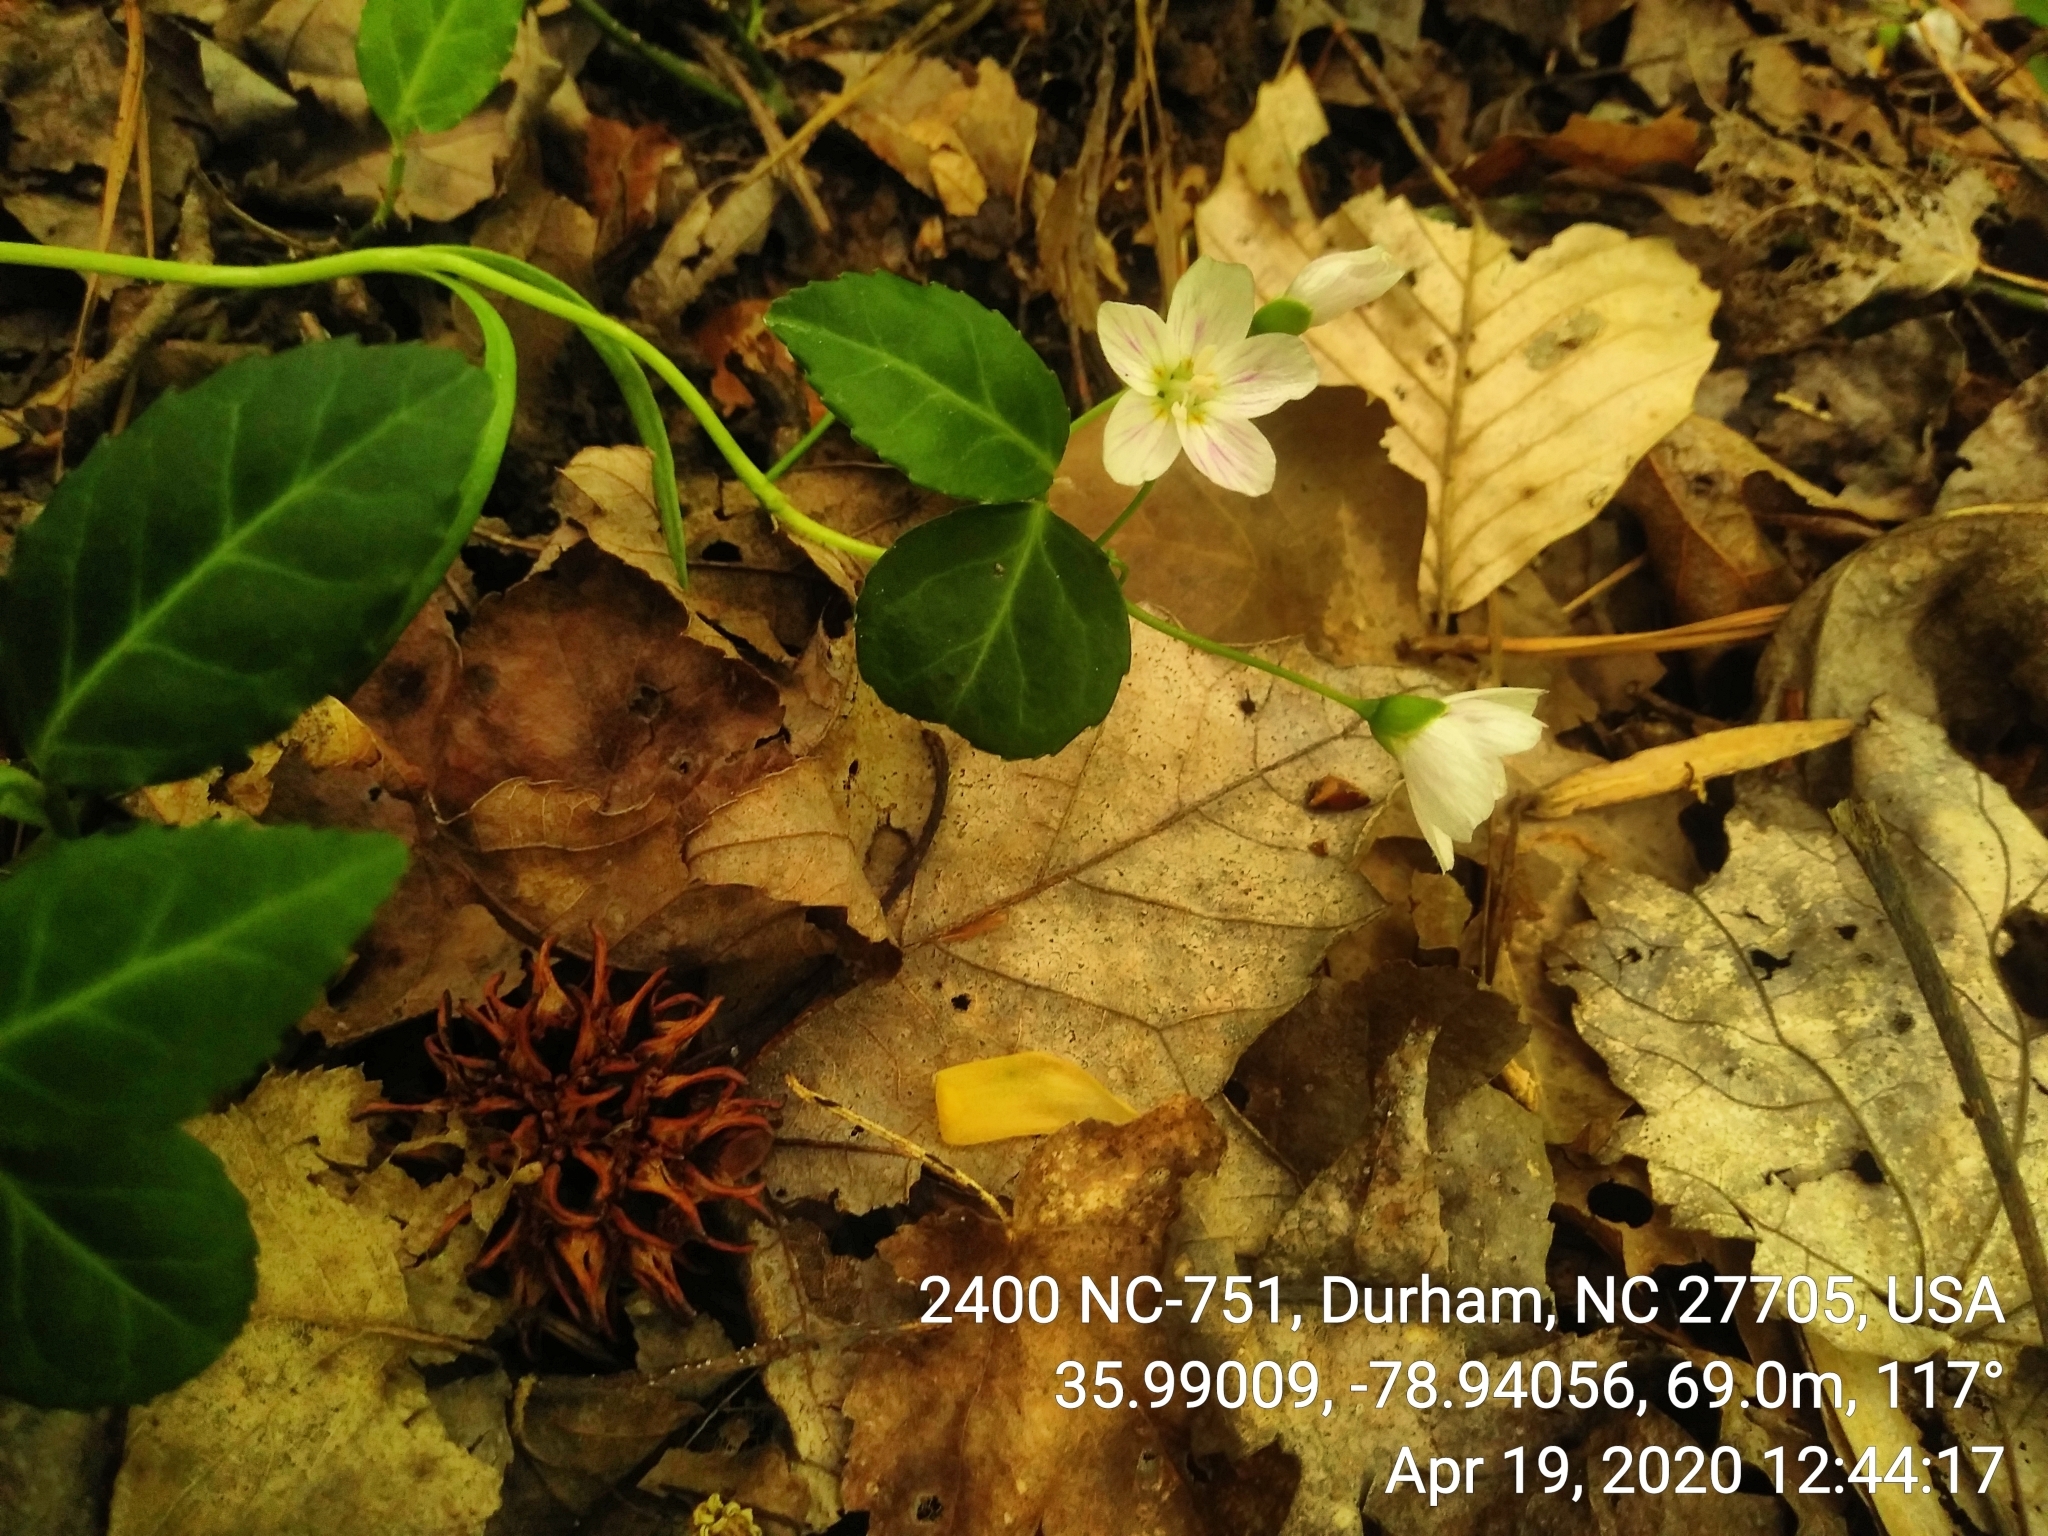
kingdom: Plantae
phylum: Tracheophyta
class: Magnoliopsida
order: Caryophyllales
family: Montiaceae
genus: Claytonia
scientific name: Claytonia virginica
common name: Virginia springbeauty
